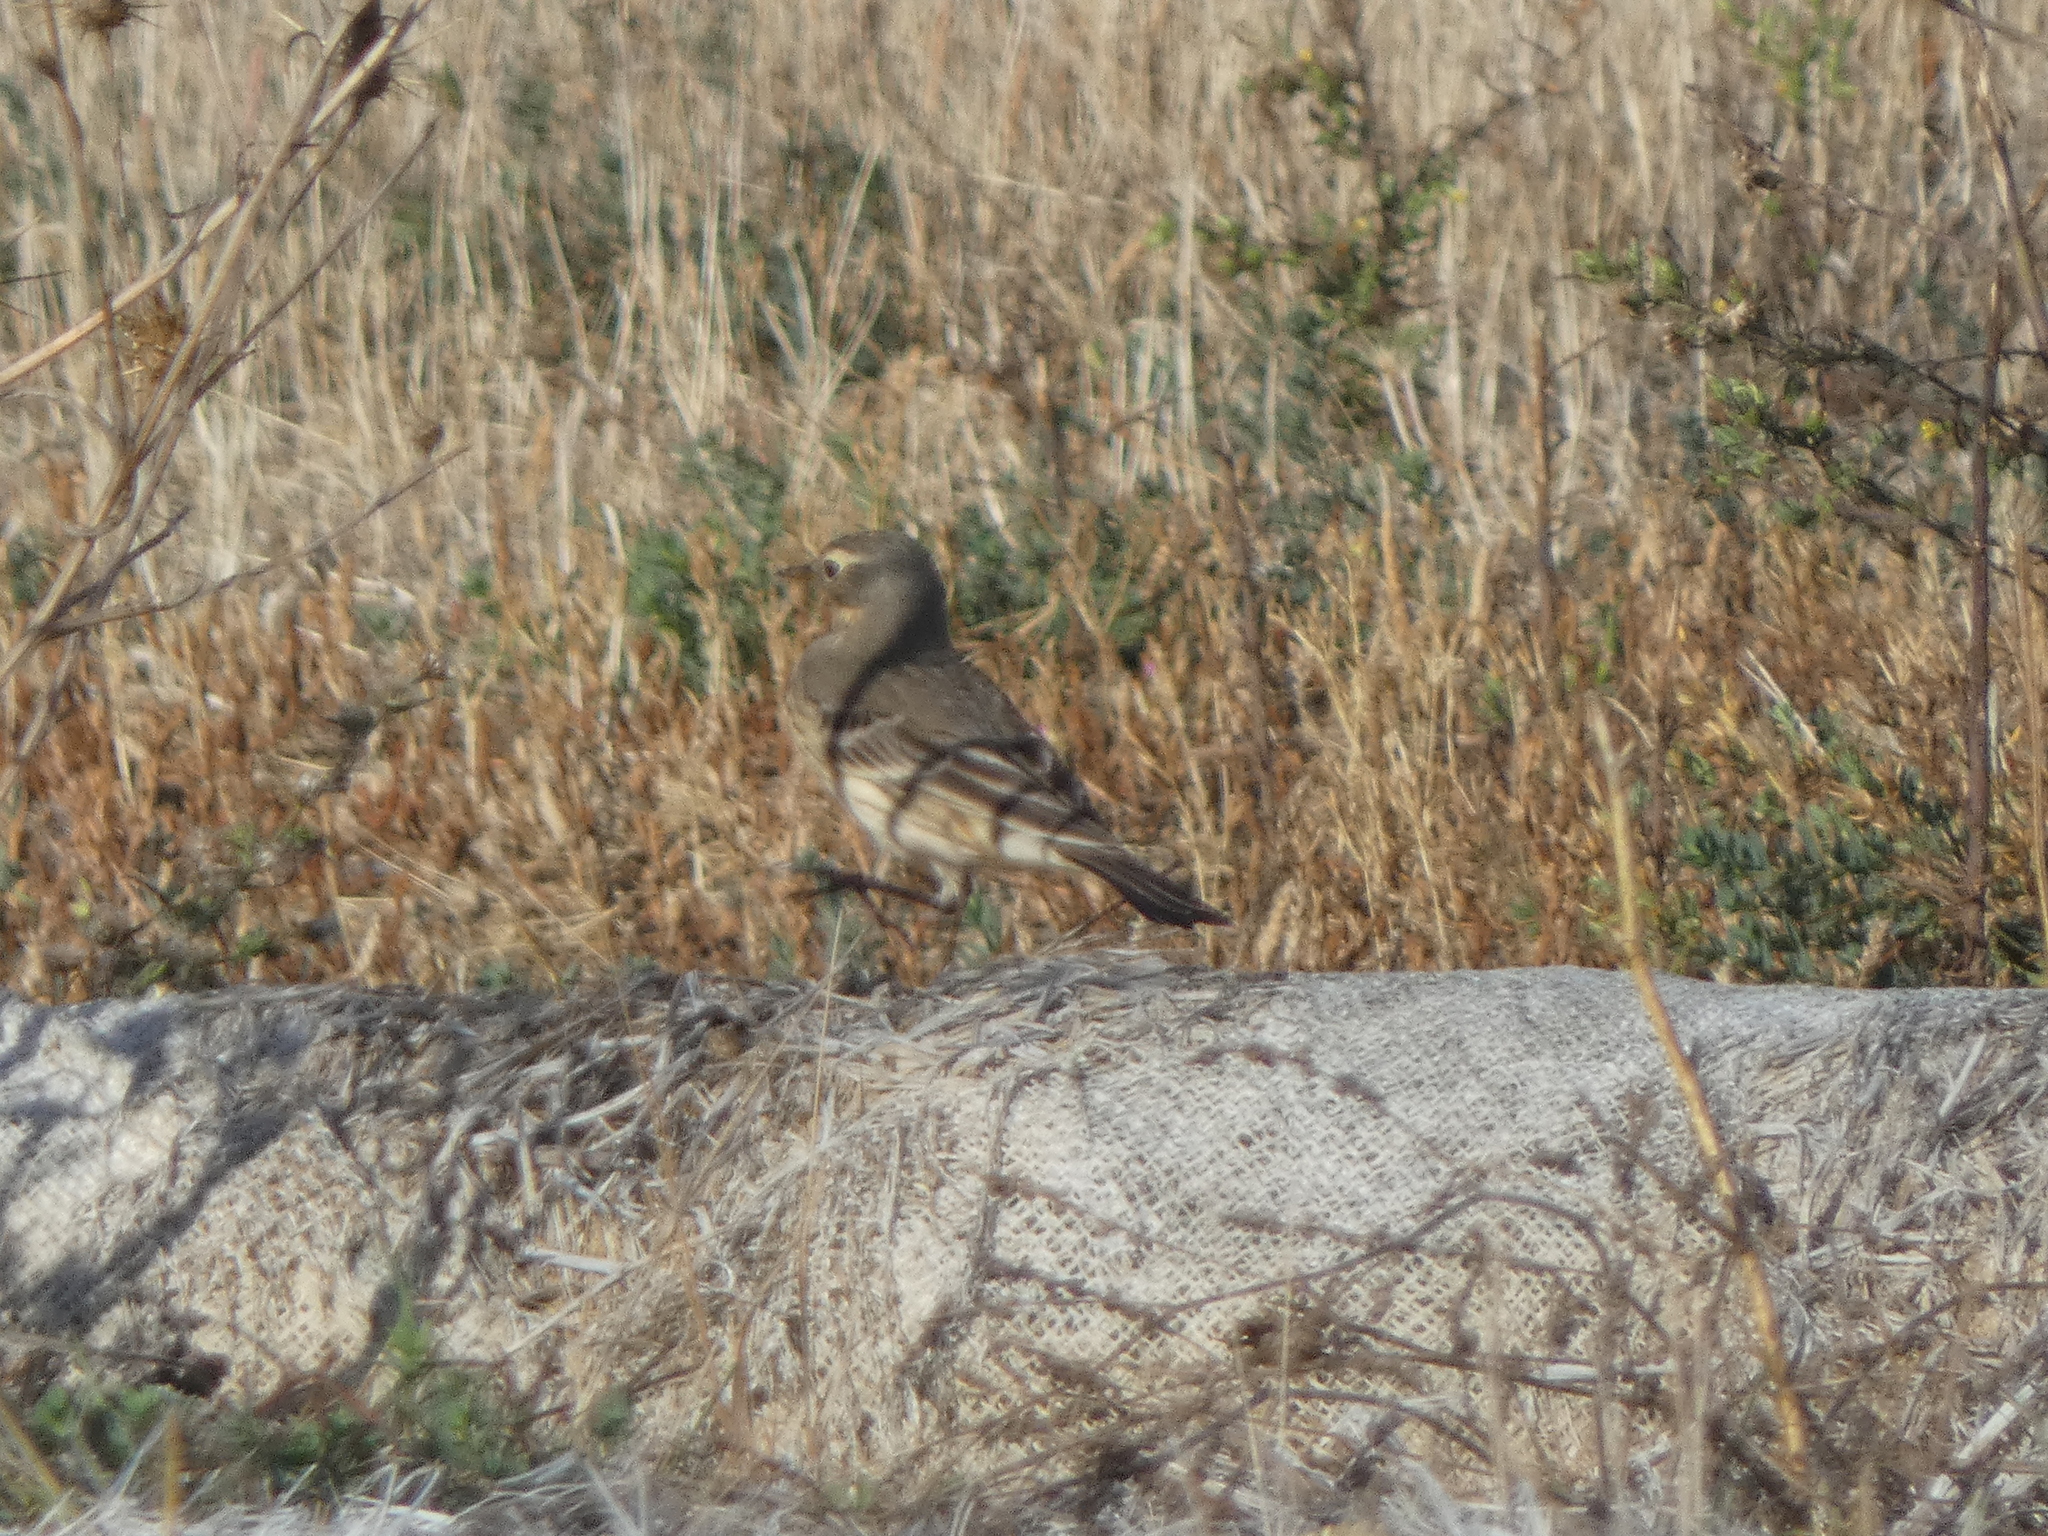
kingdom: Animalia
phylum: Chordata
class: Aves
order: Passeriformes
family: Motacillidae
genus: Anthus
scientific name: Anthus rubescens
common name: Buff-bellied pipit
